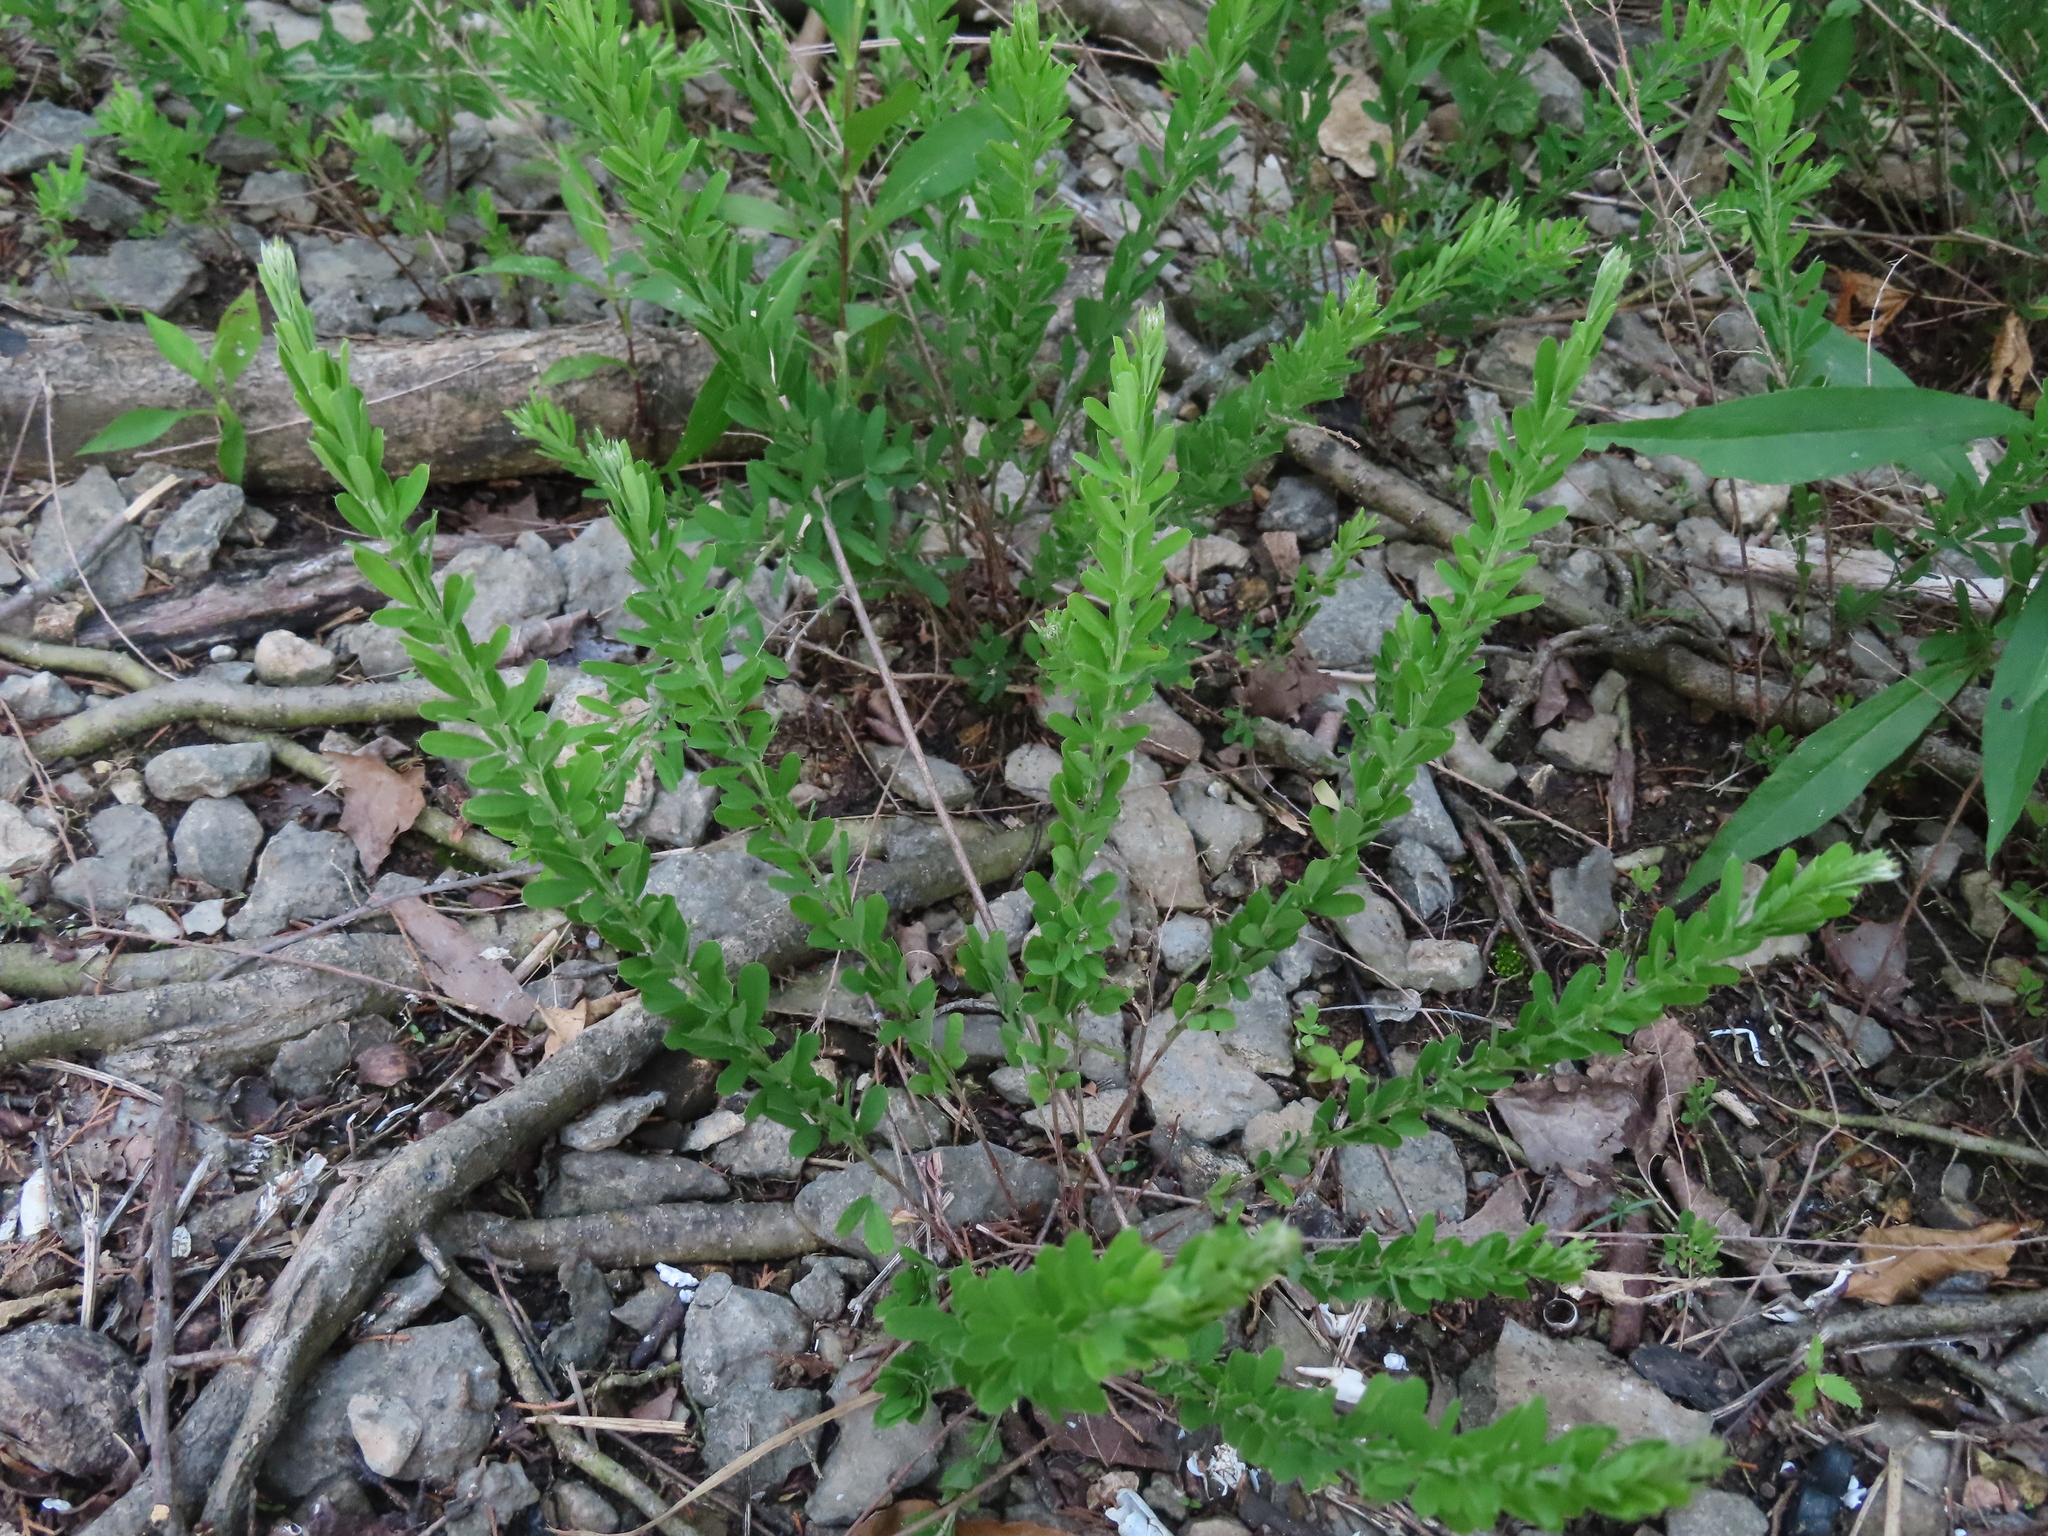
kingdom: Plantae
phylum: Tracheophyta
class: Magnoliopsida
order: Fabales
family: Fabaceae
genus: Lespedeza
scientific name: Lespedeza cuneata
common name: Chinese bush-clover
